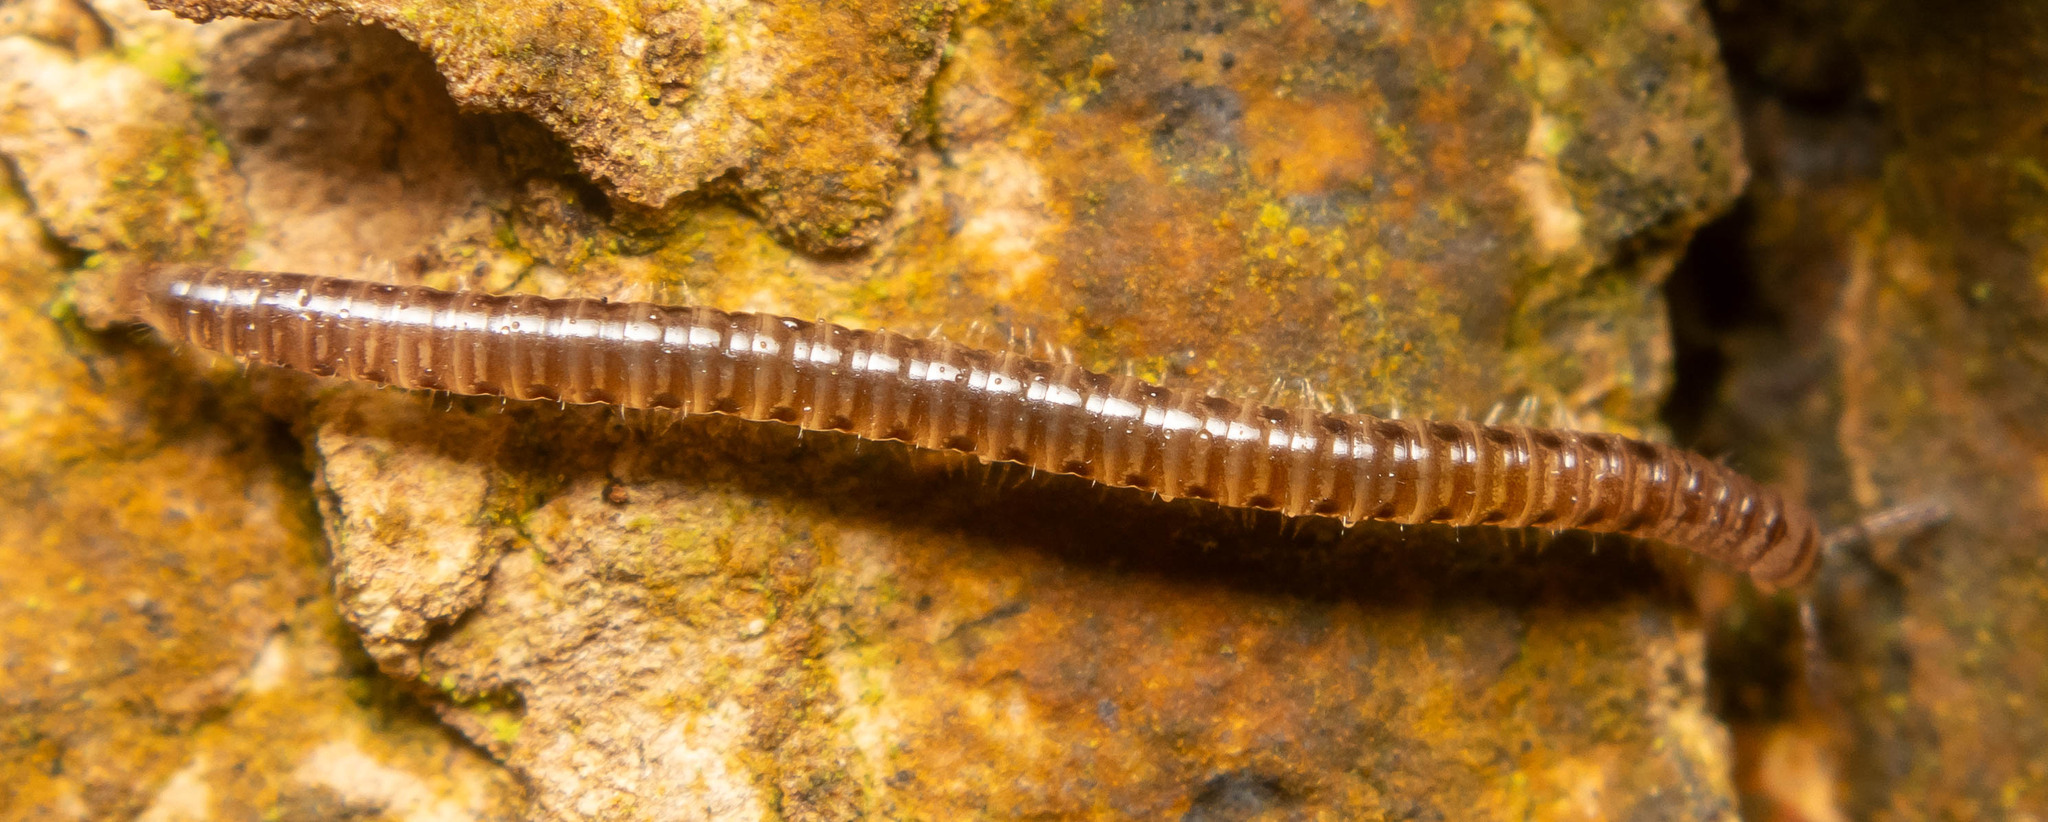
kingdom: Animalia
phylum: Arthropoda
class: Diplopoda
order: Julida
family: Blaniulidae
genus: Proteroiulus
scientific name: Proteroiulus fuscus
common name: Millipede
